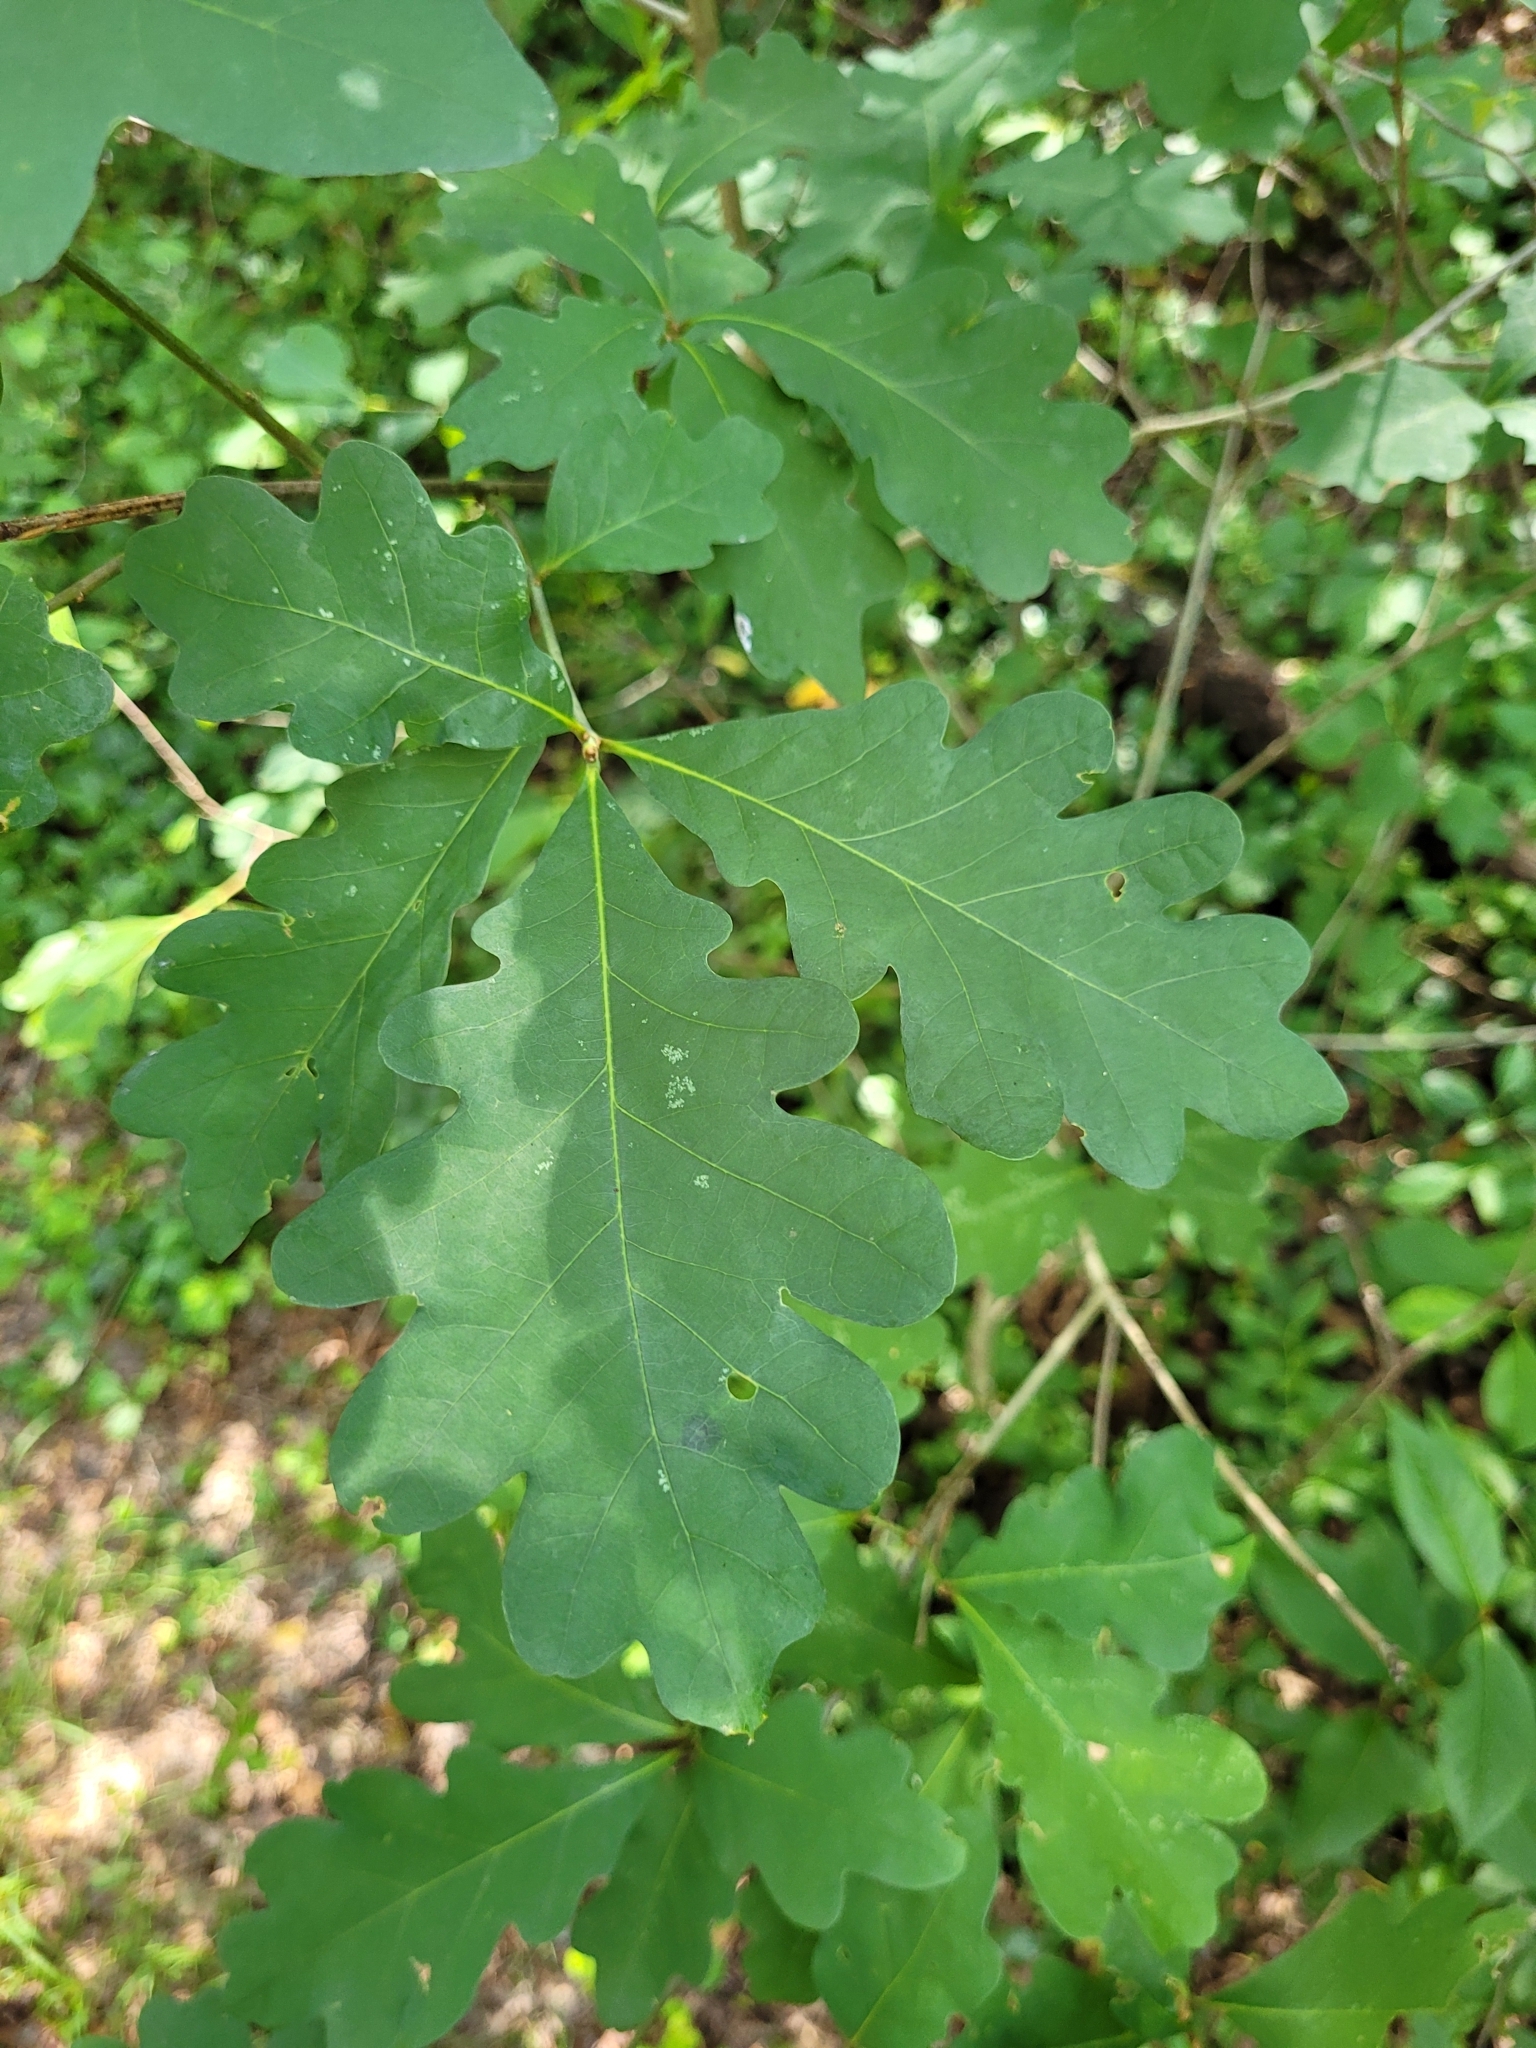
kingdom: Plantae
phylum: Tracheophyta
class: Magnoliopsida
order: Fagales
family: Fagaceae
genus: Quercus
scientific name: Quercus alba
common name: White oak
